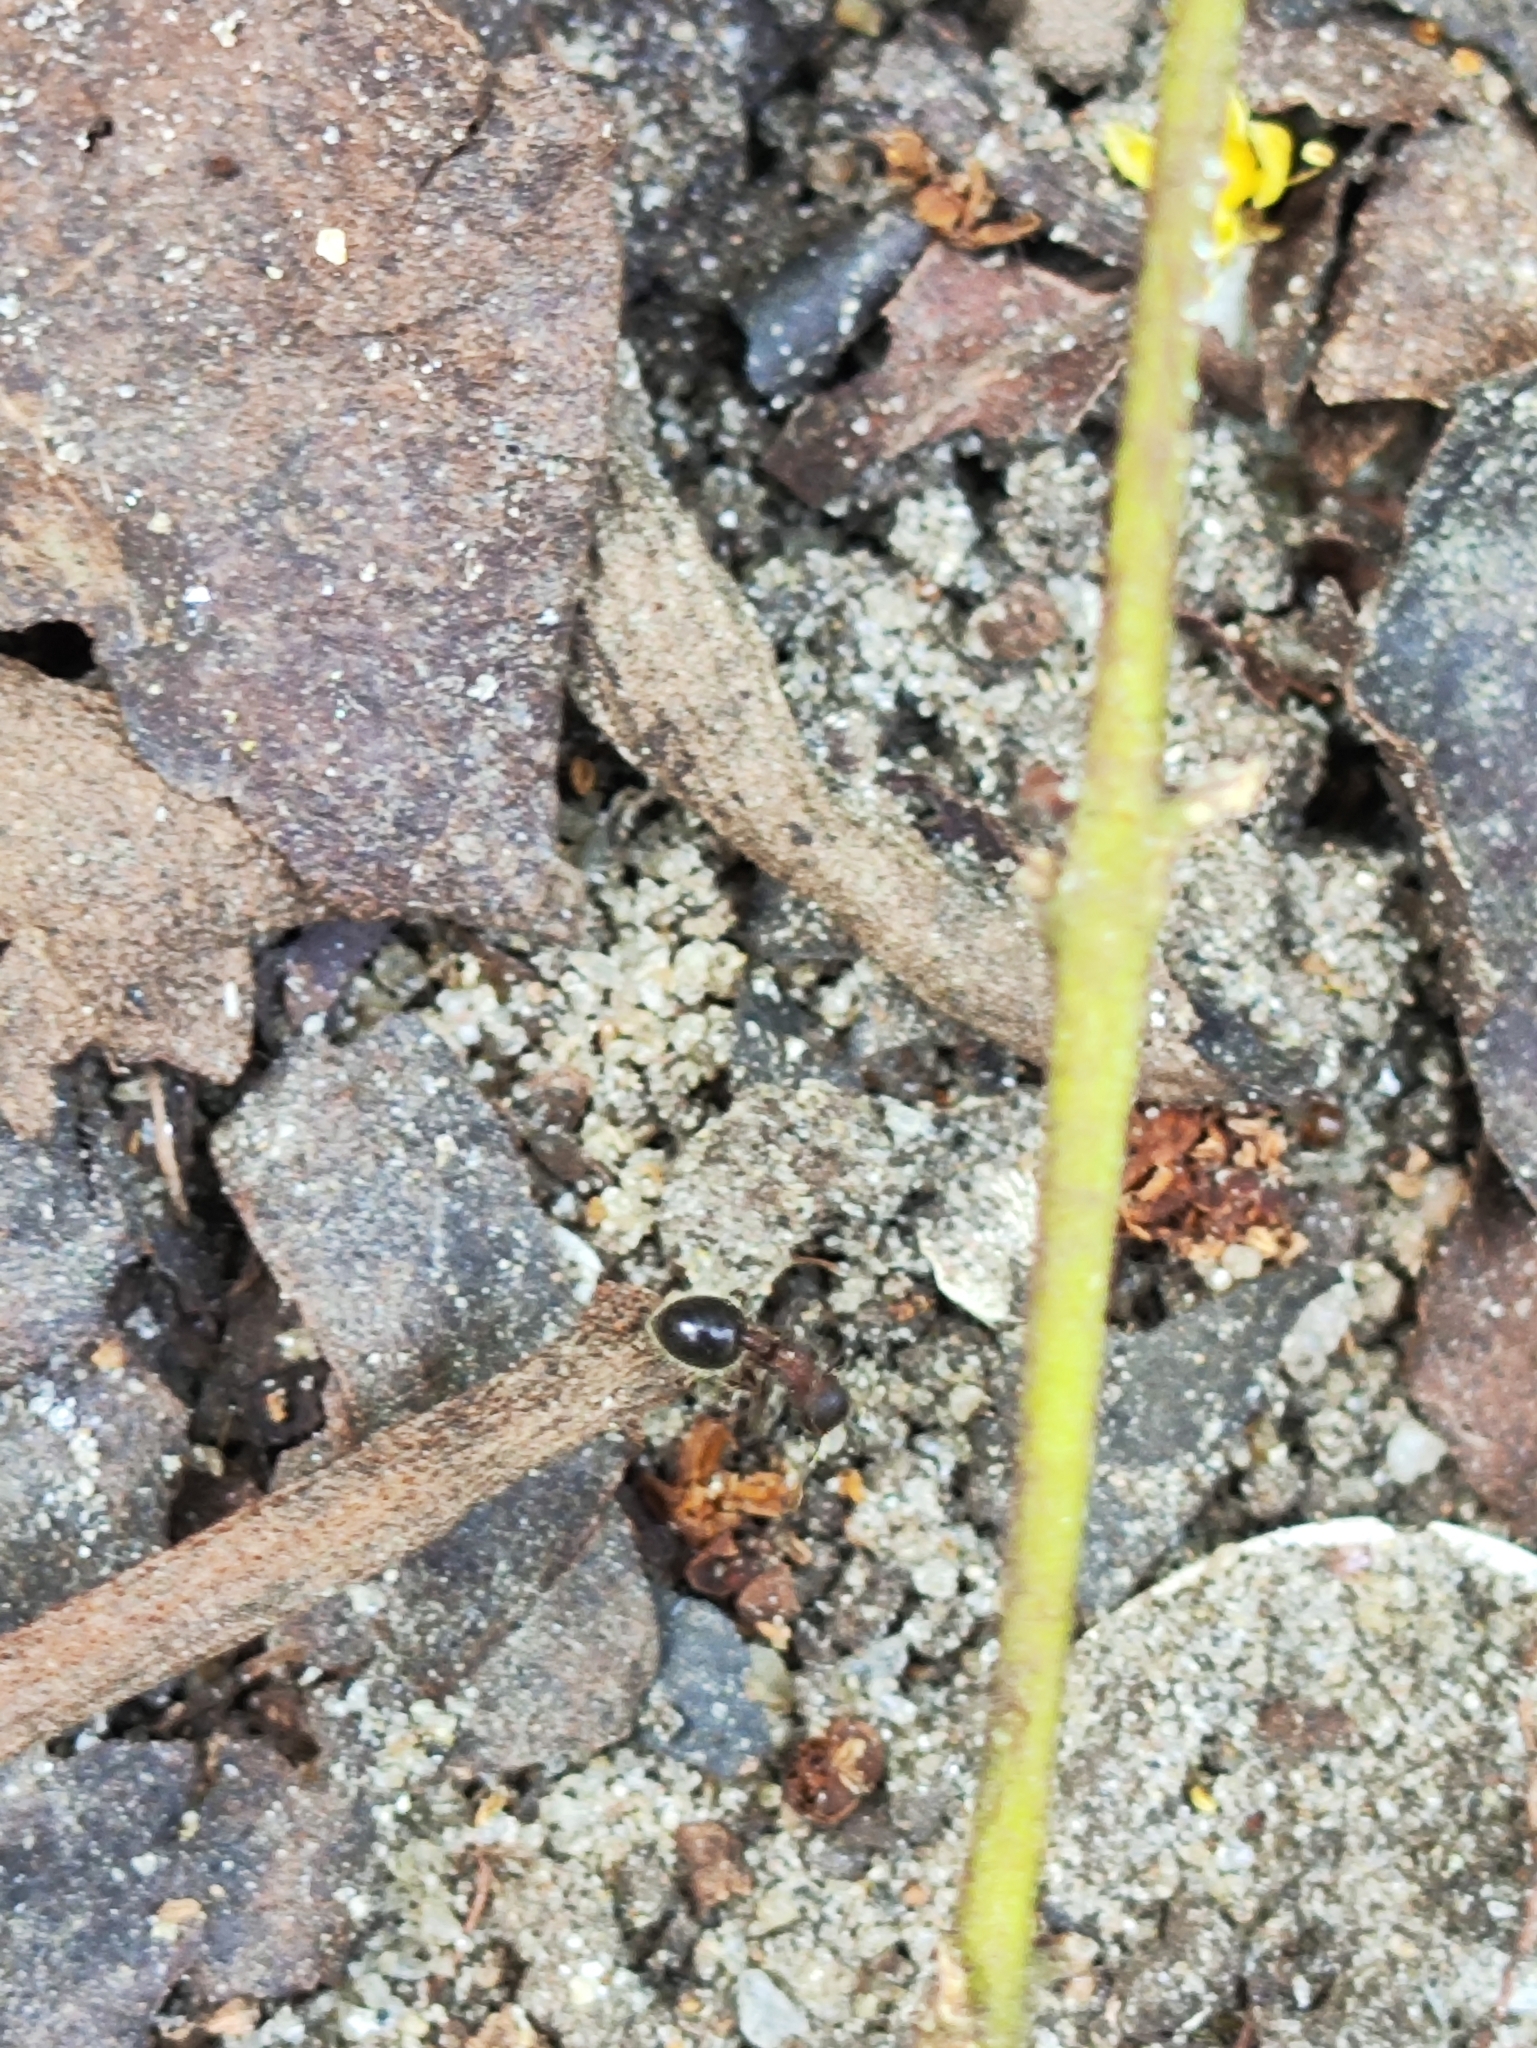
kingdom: Animalia
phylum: Arthropoda
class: Insecta
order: Hymenoptera
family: Formicidae
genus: Meranoplus
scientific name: Meranoplus bicolor
